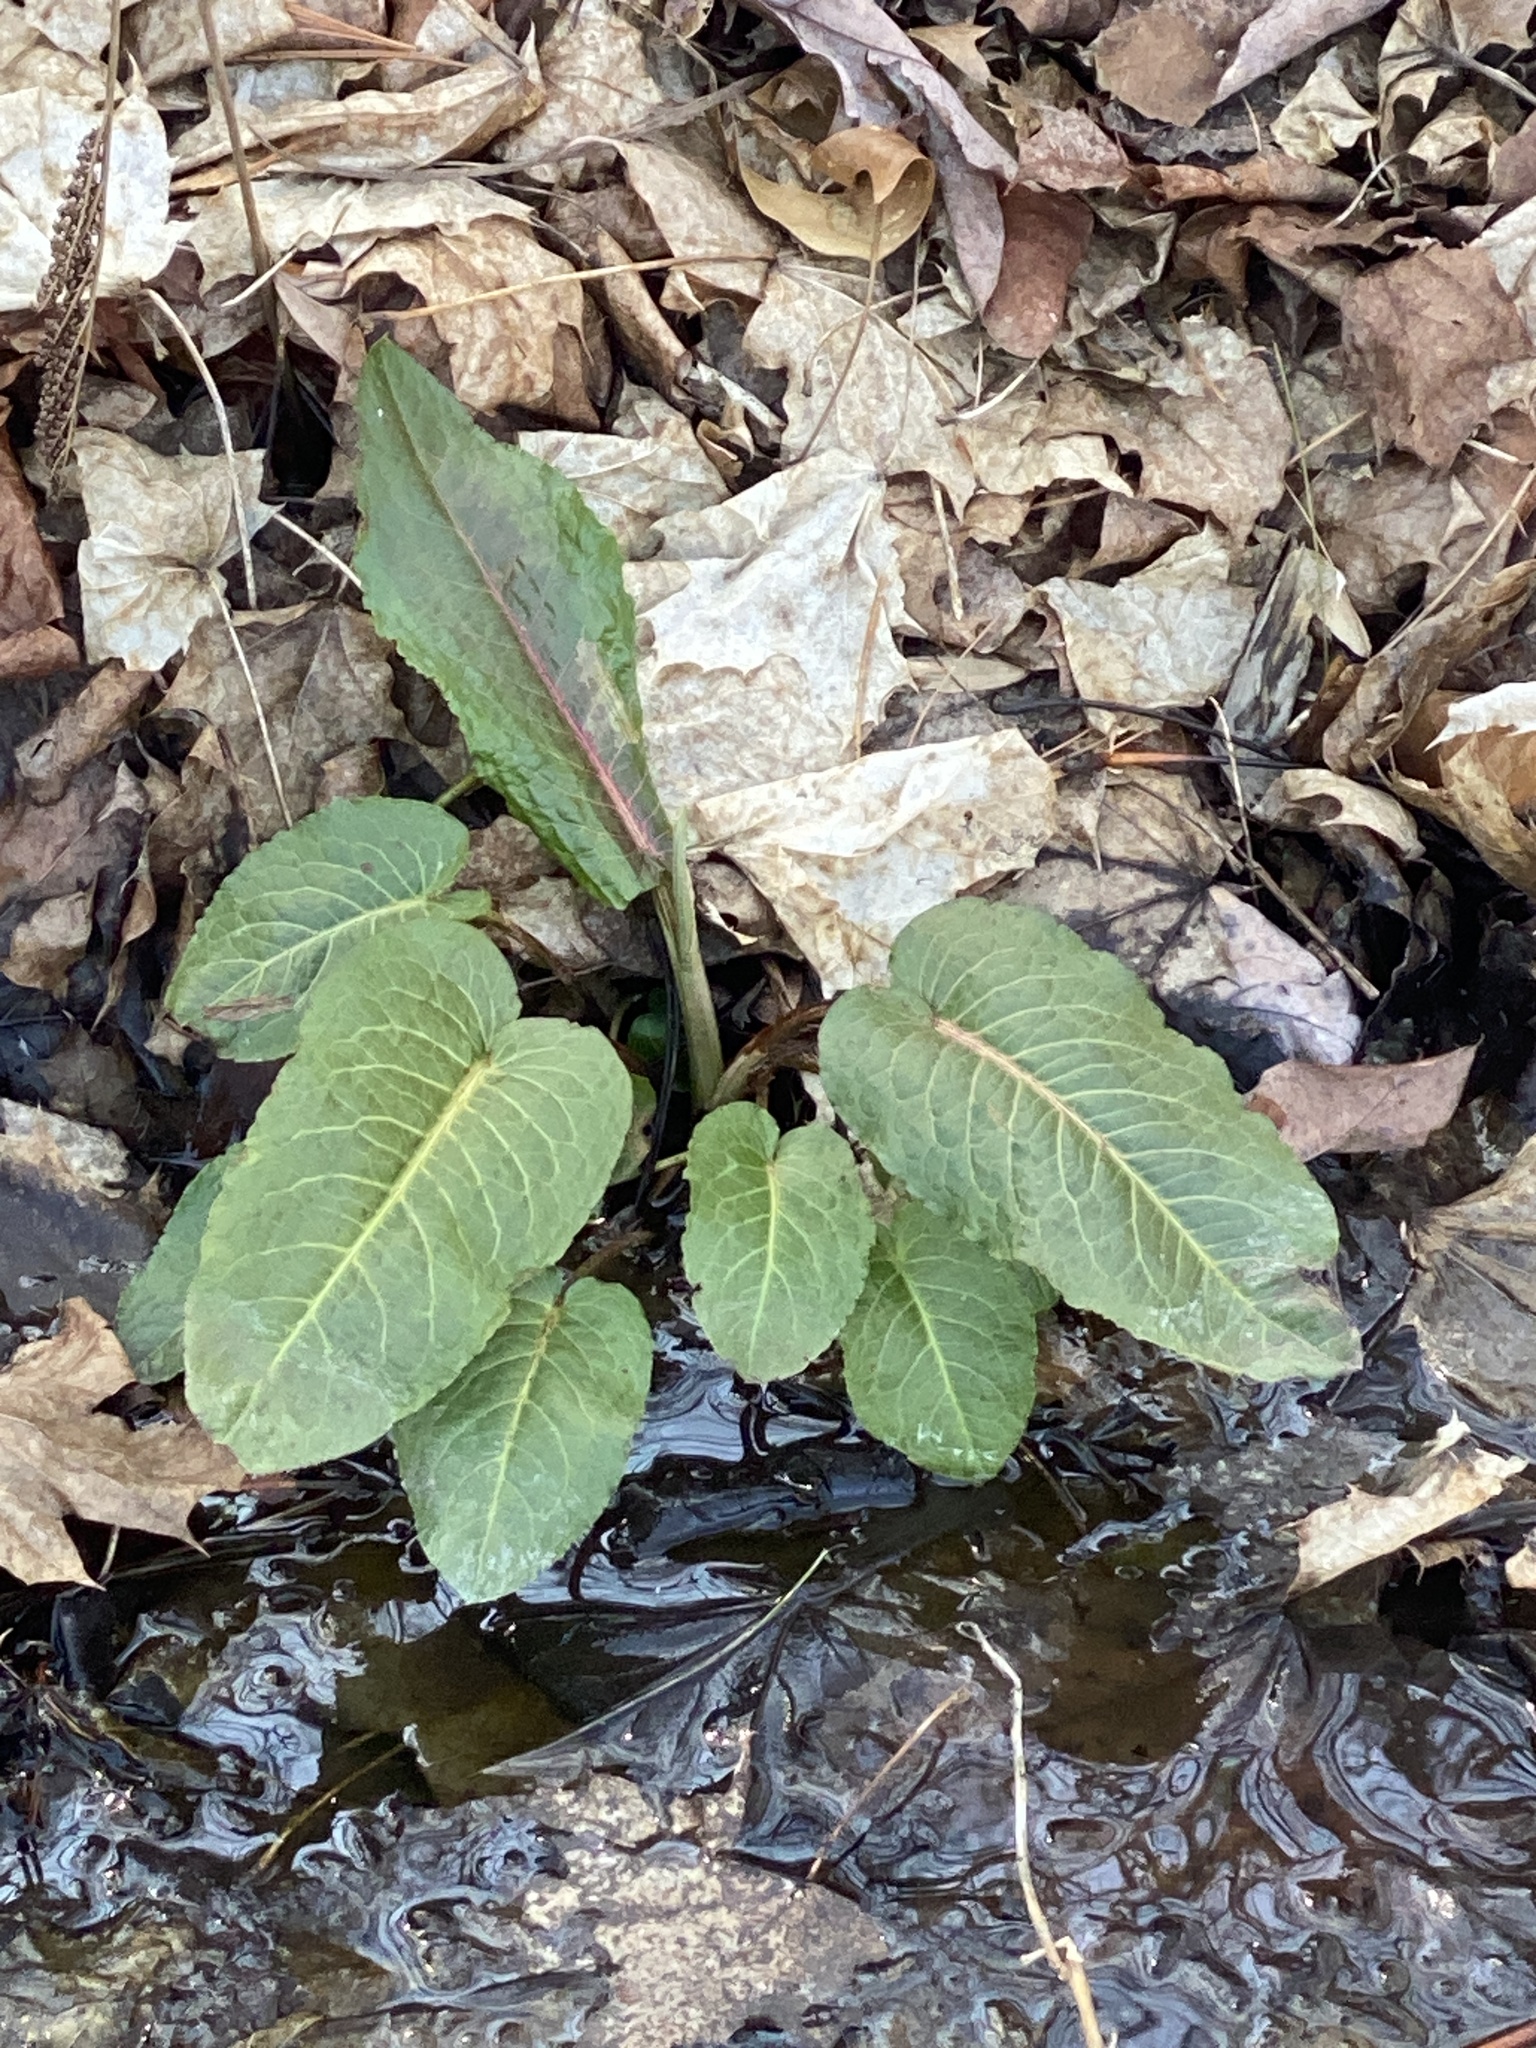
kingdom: Plantae
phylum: Tracheophyta
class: Magnoliopsida
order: Caryophyllales
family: Polygonaceae
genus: Rumex
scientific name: Rumex obtusifolius
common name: Bitter dock
